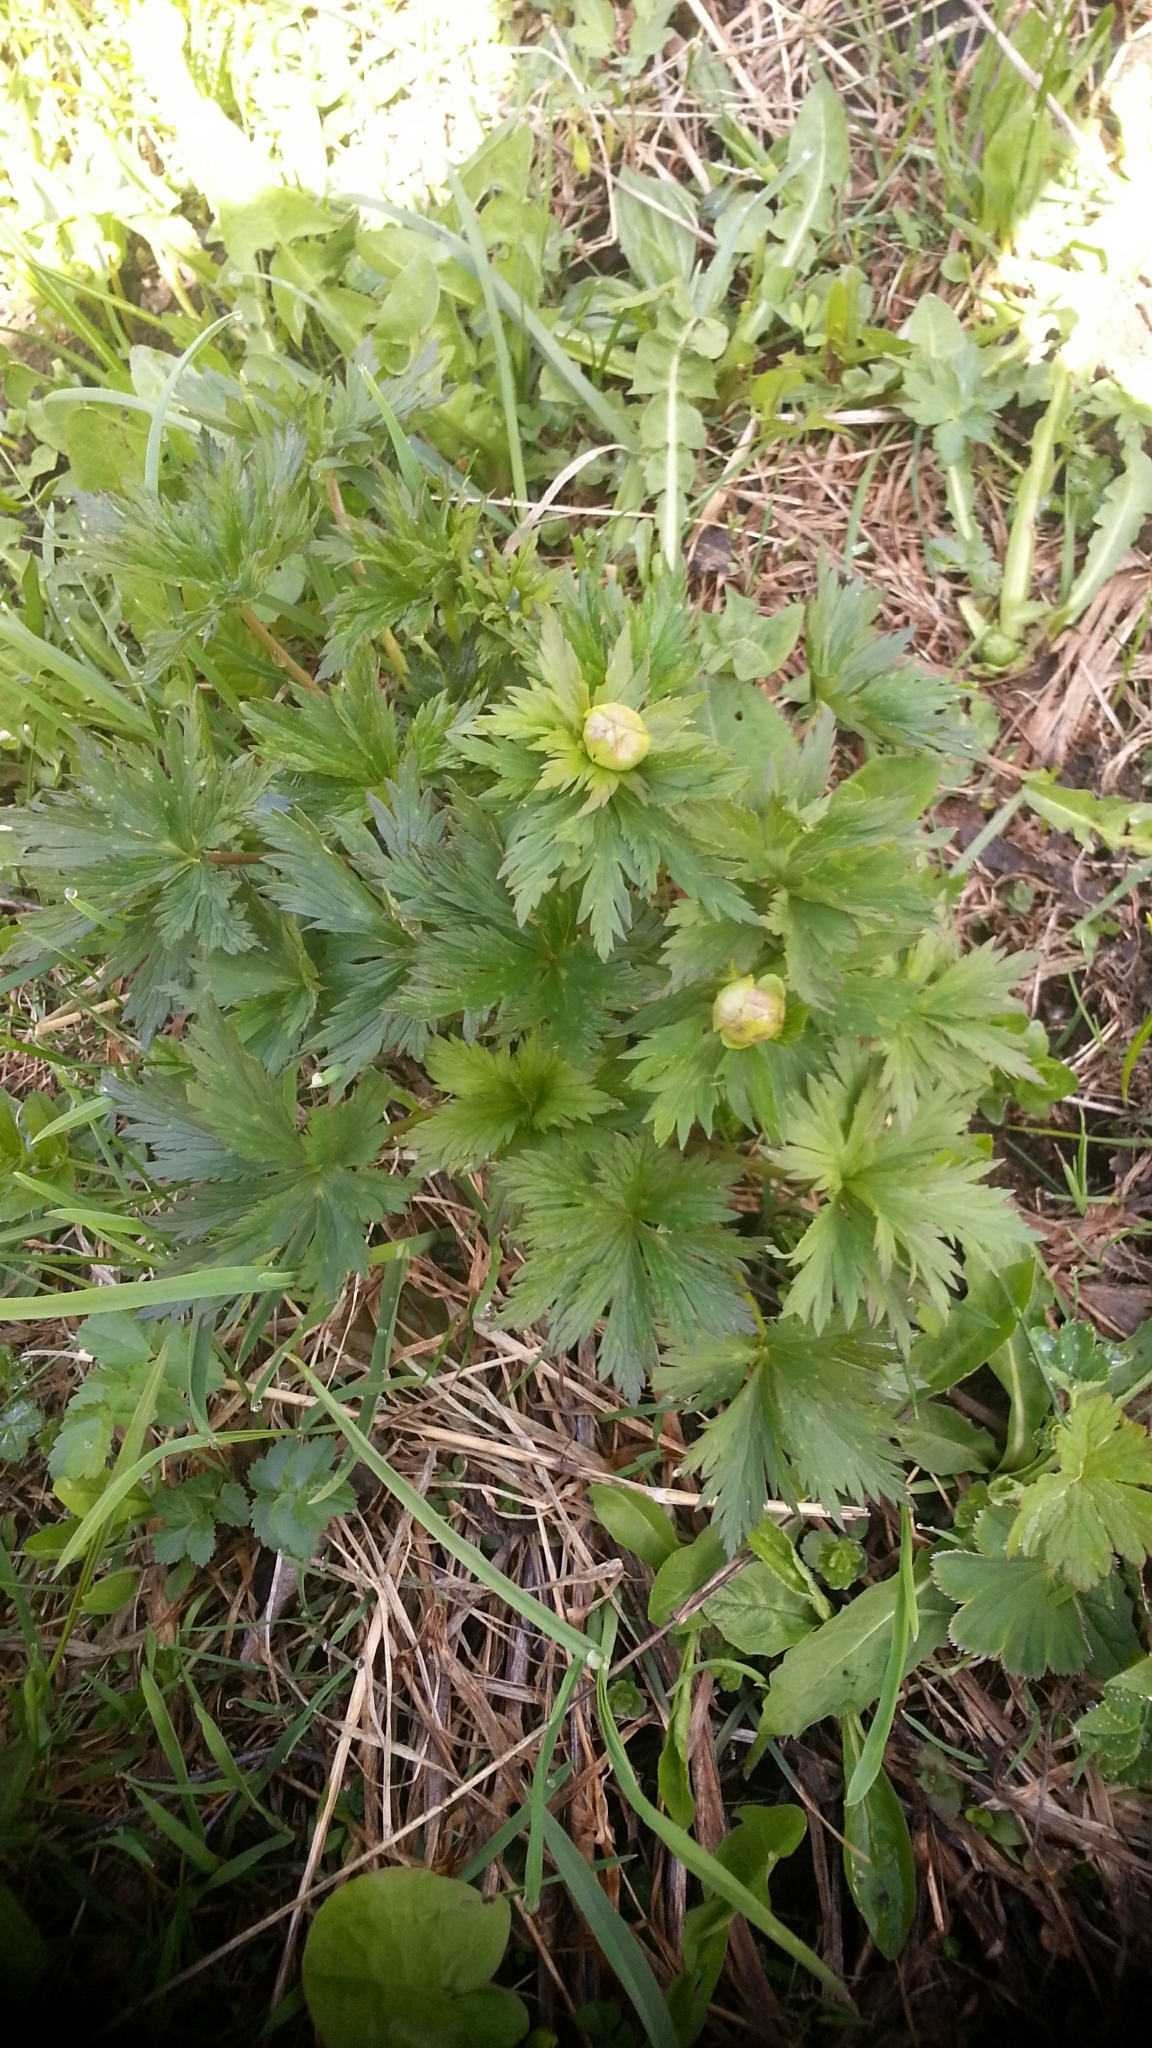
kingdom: Plantae
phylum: Tracheophyta
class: Magnoliopsida
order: Ranunculales
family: Ranunculaceae
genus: Trollius
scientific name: Trollius europaeus
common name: European globeflower
